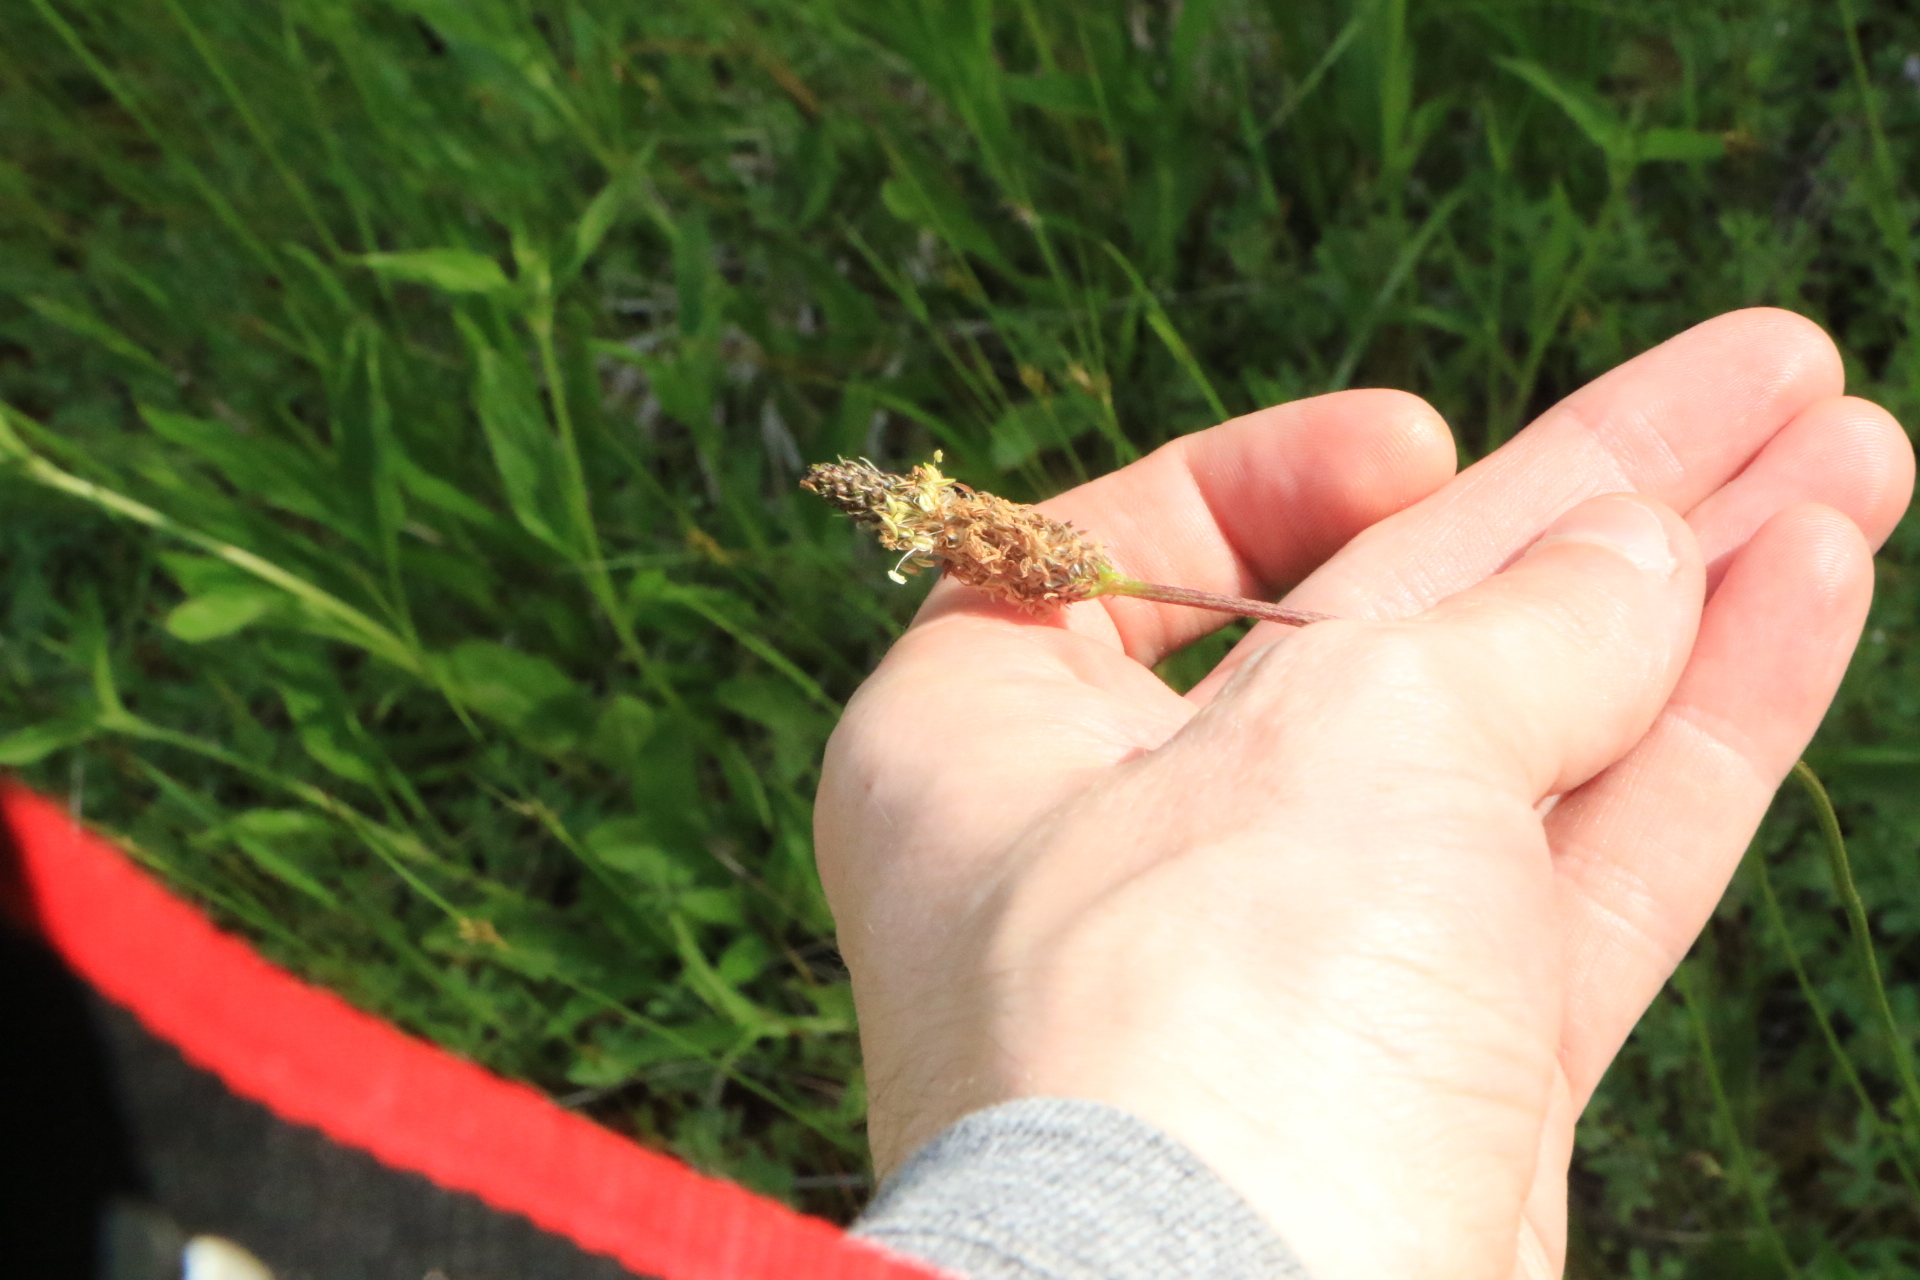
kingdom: Plantae
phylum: Tracheophyta
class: Magnoliopsida
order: Lamiales
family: Plantaginaceae
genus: Plantago
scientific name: Plantago lanceolata
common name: Ribwort plantain
